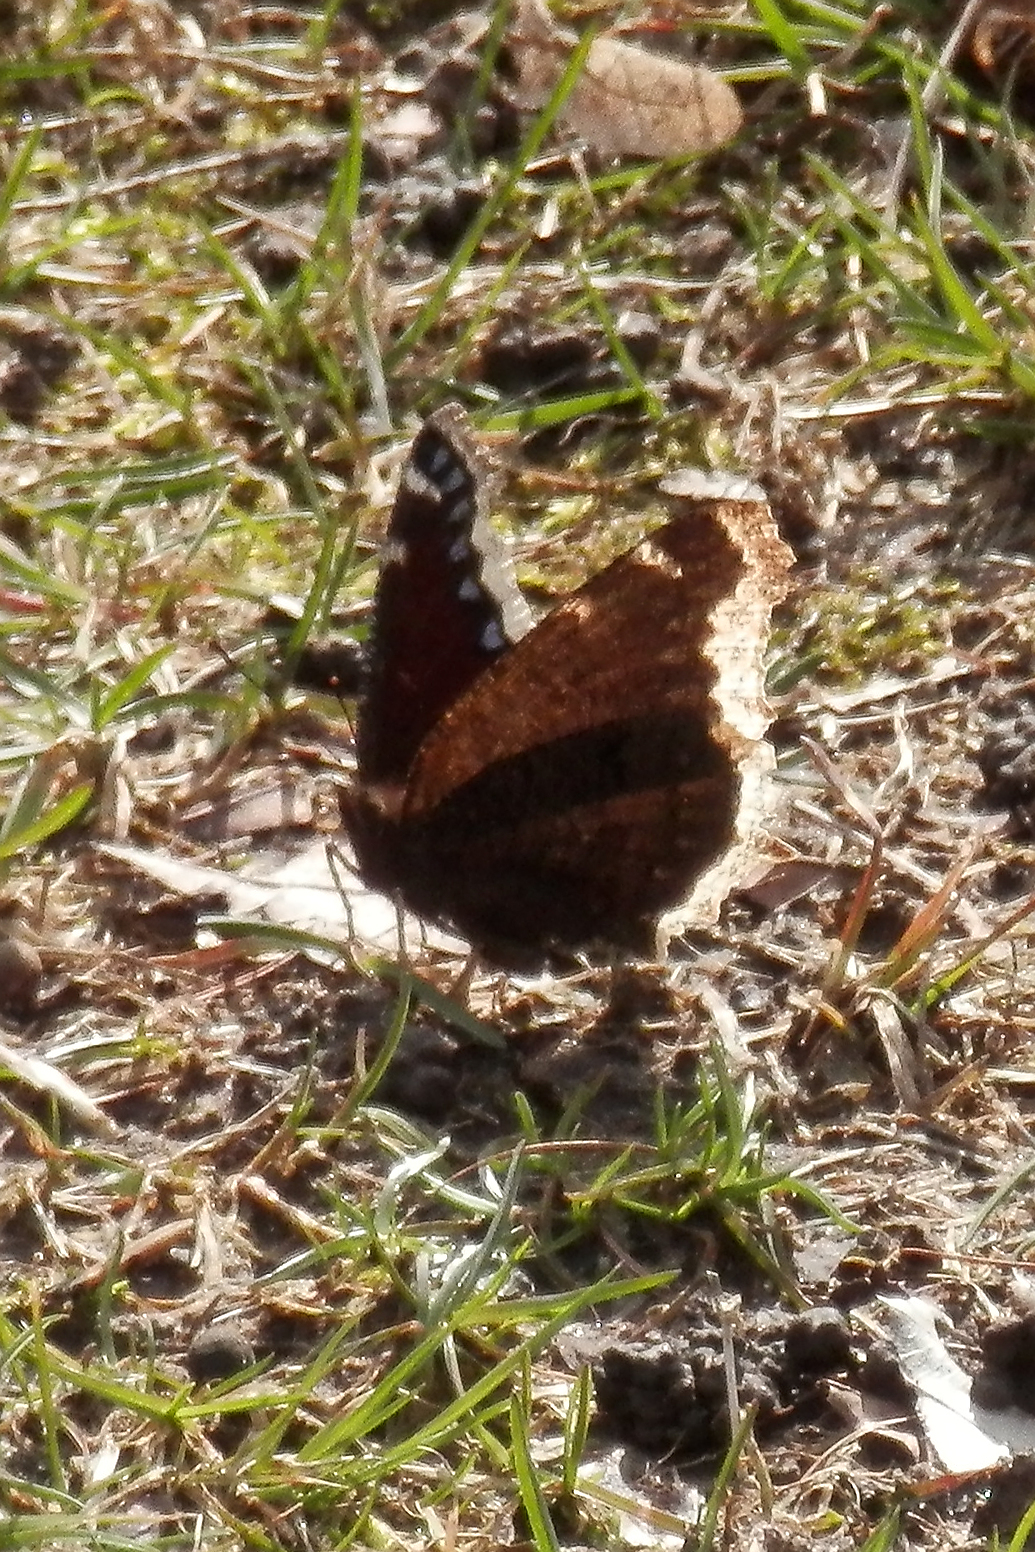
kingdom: Animalia
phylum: Arthropoda
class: Insecta
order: Lepidoptera
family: Nymphalidae
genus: Nymphalis
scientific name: Nymphalis antiopa
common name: Camberwell beauty
